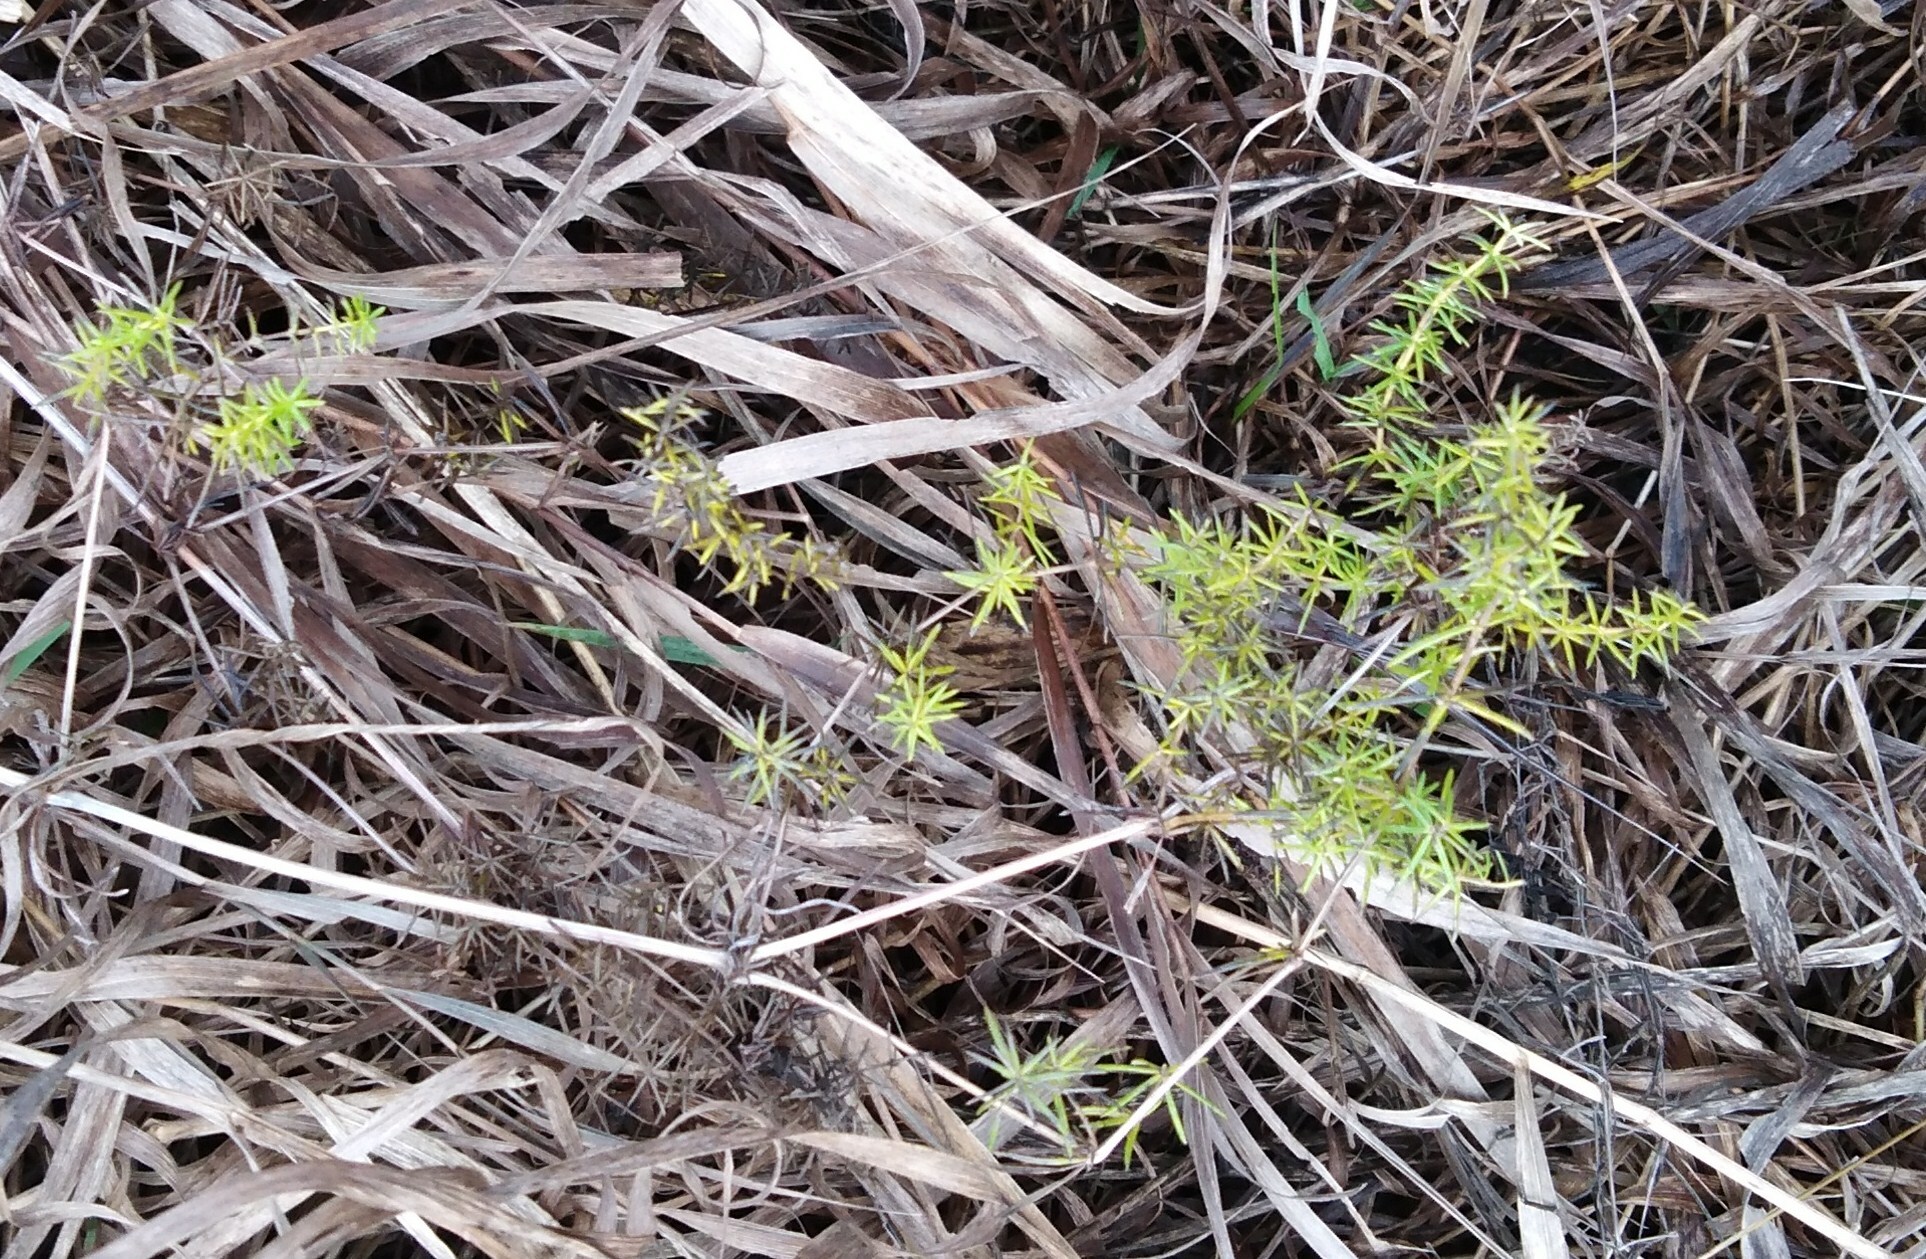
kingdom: Plantae
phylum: Tracheophyta
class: Magnoliopsida
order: Gentianales
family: Rubiaceae
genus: Galium
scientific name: Galium verum
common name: Lady's bedstraw
